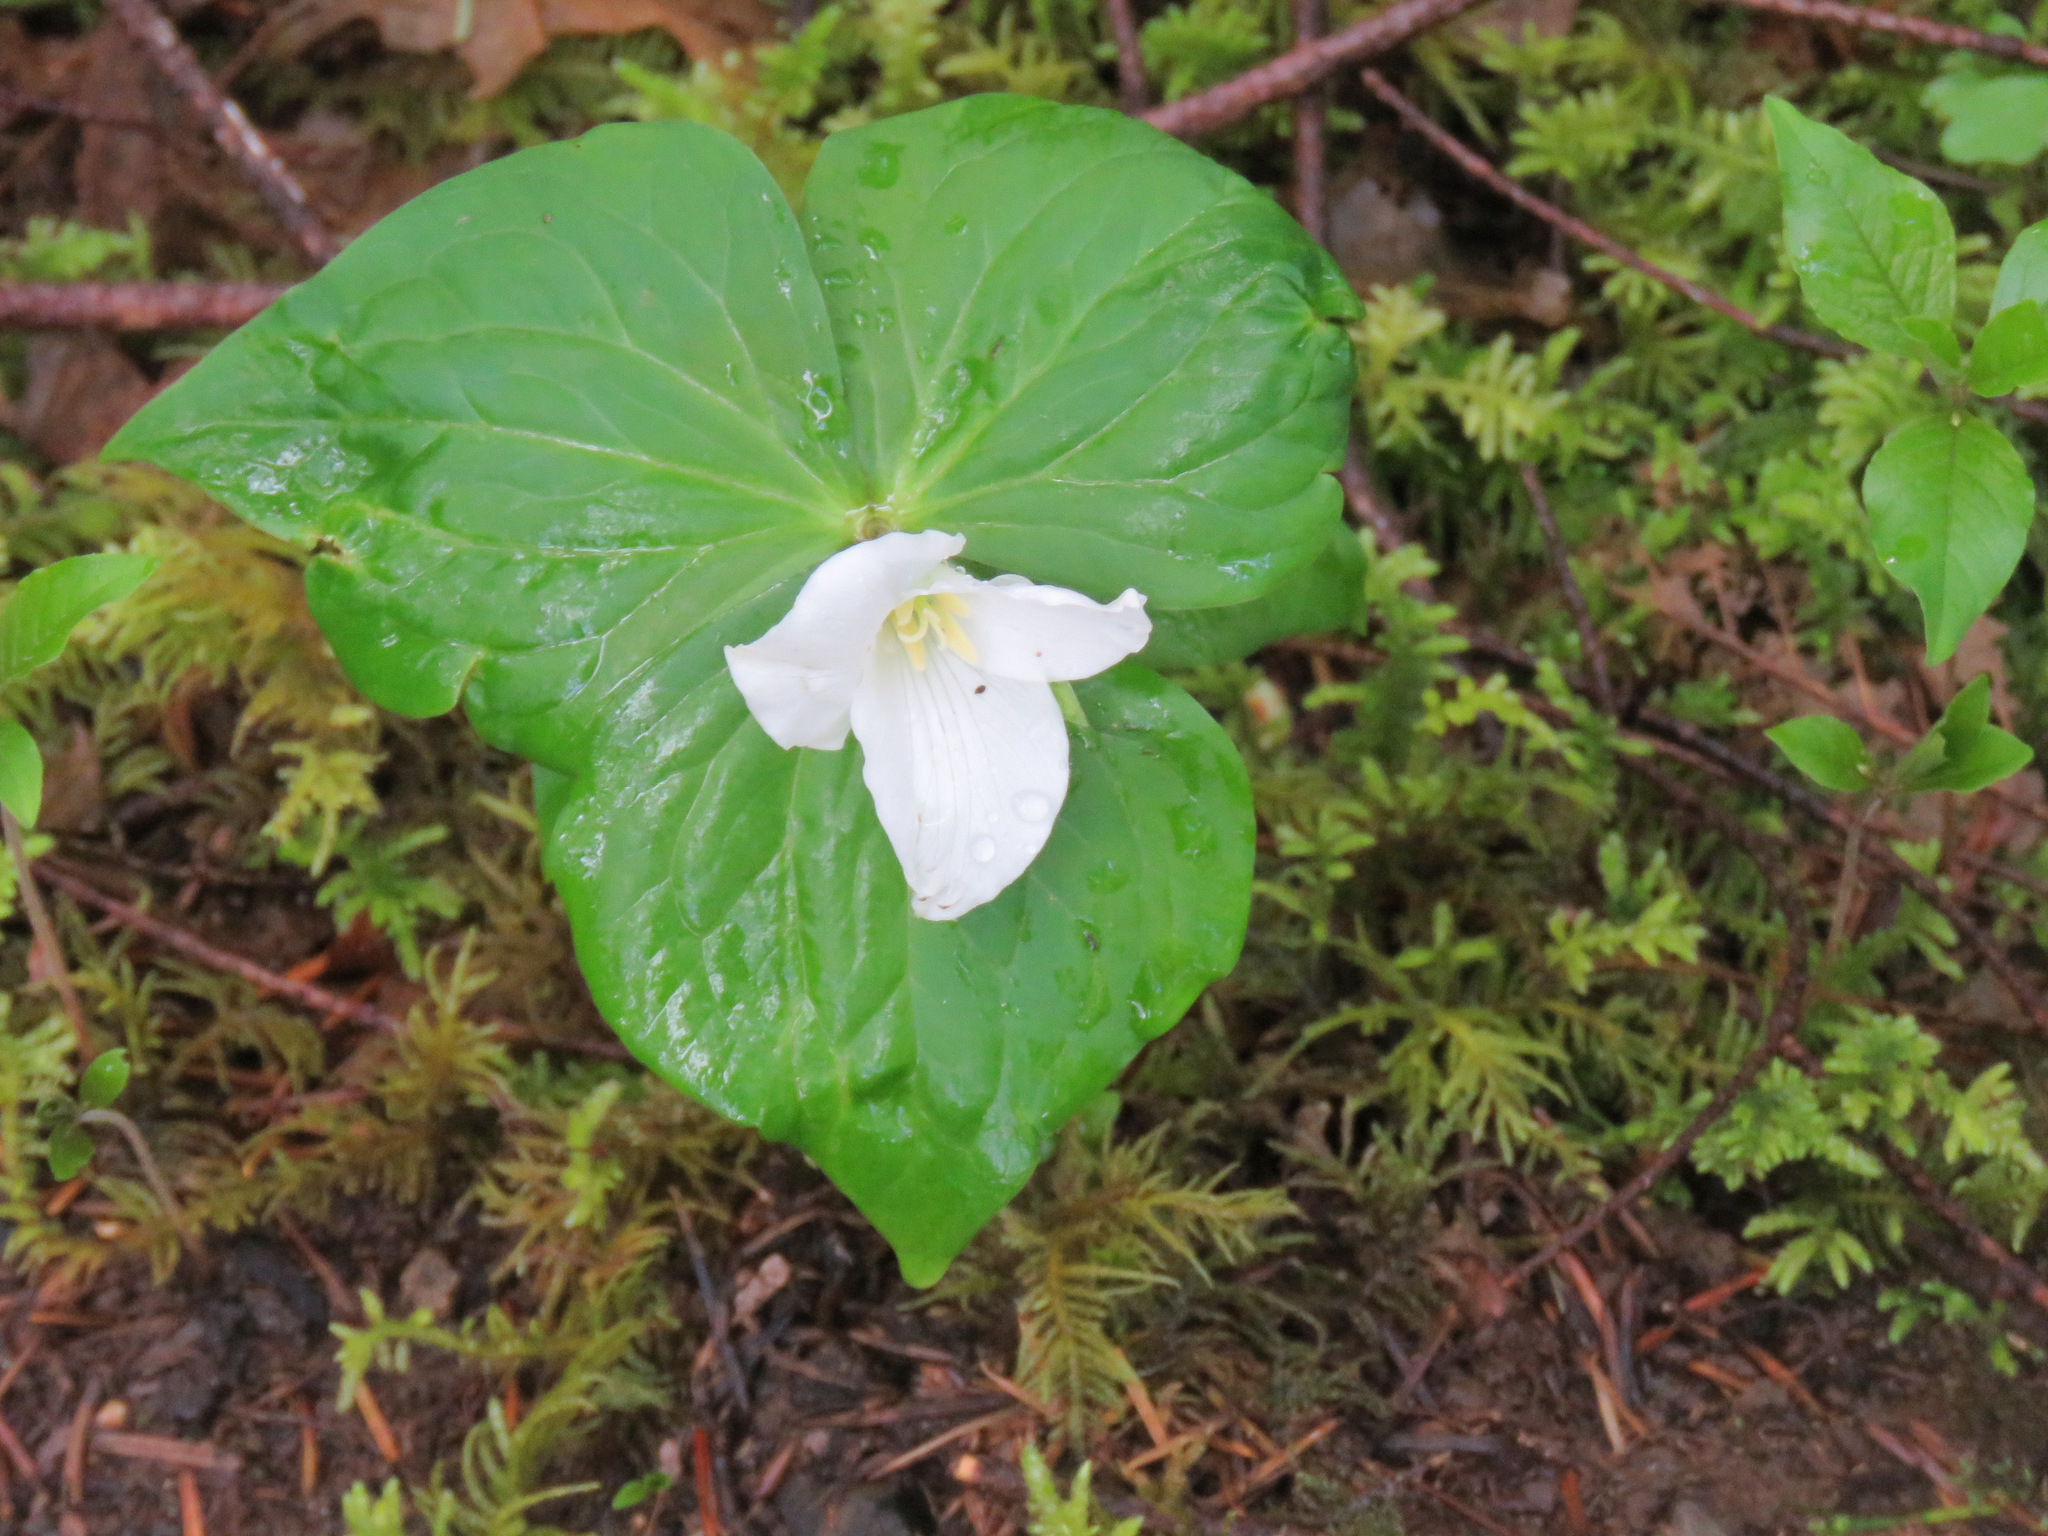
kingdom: Plantae
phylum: Tracheophyta
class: Liliopsida
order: Liliales
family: Melanthiaceae
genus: Trillium
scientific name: Trillium ovatum
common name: Pacific trillium
